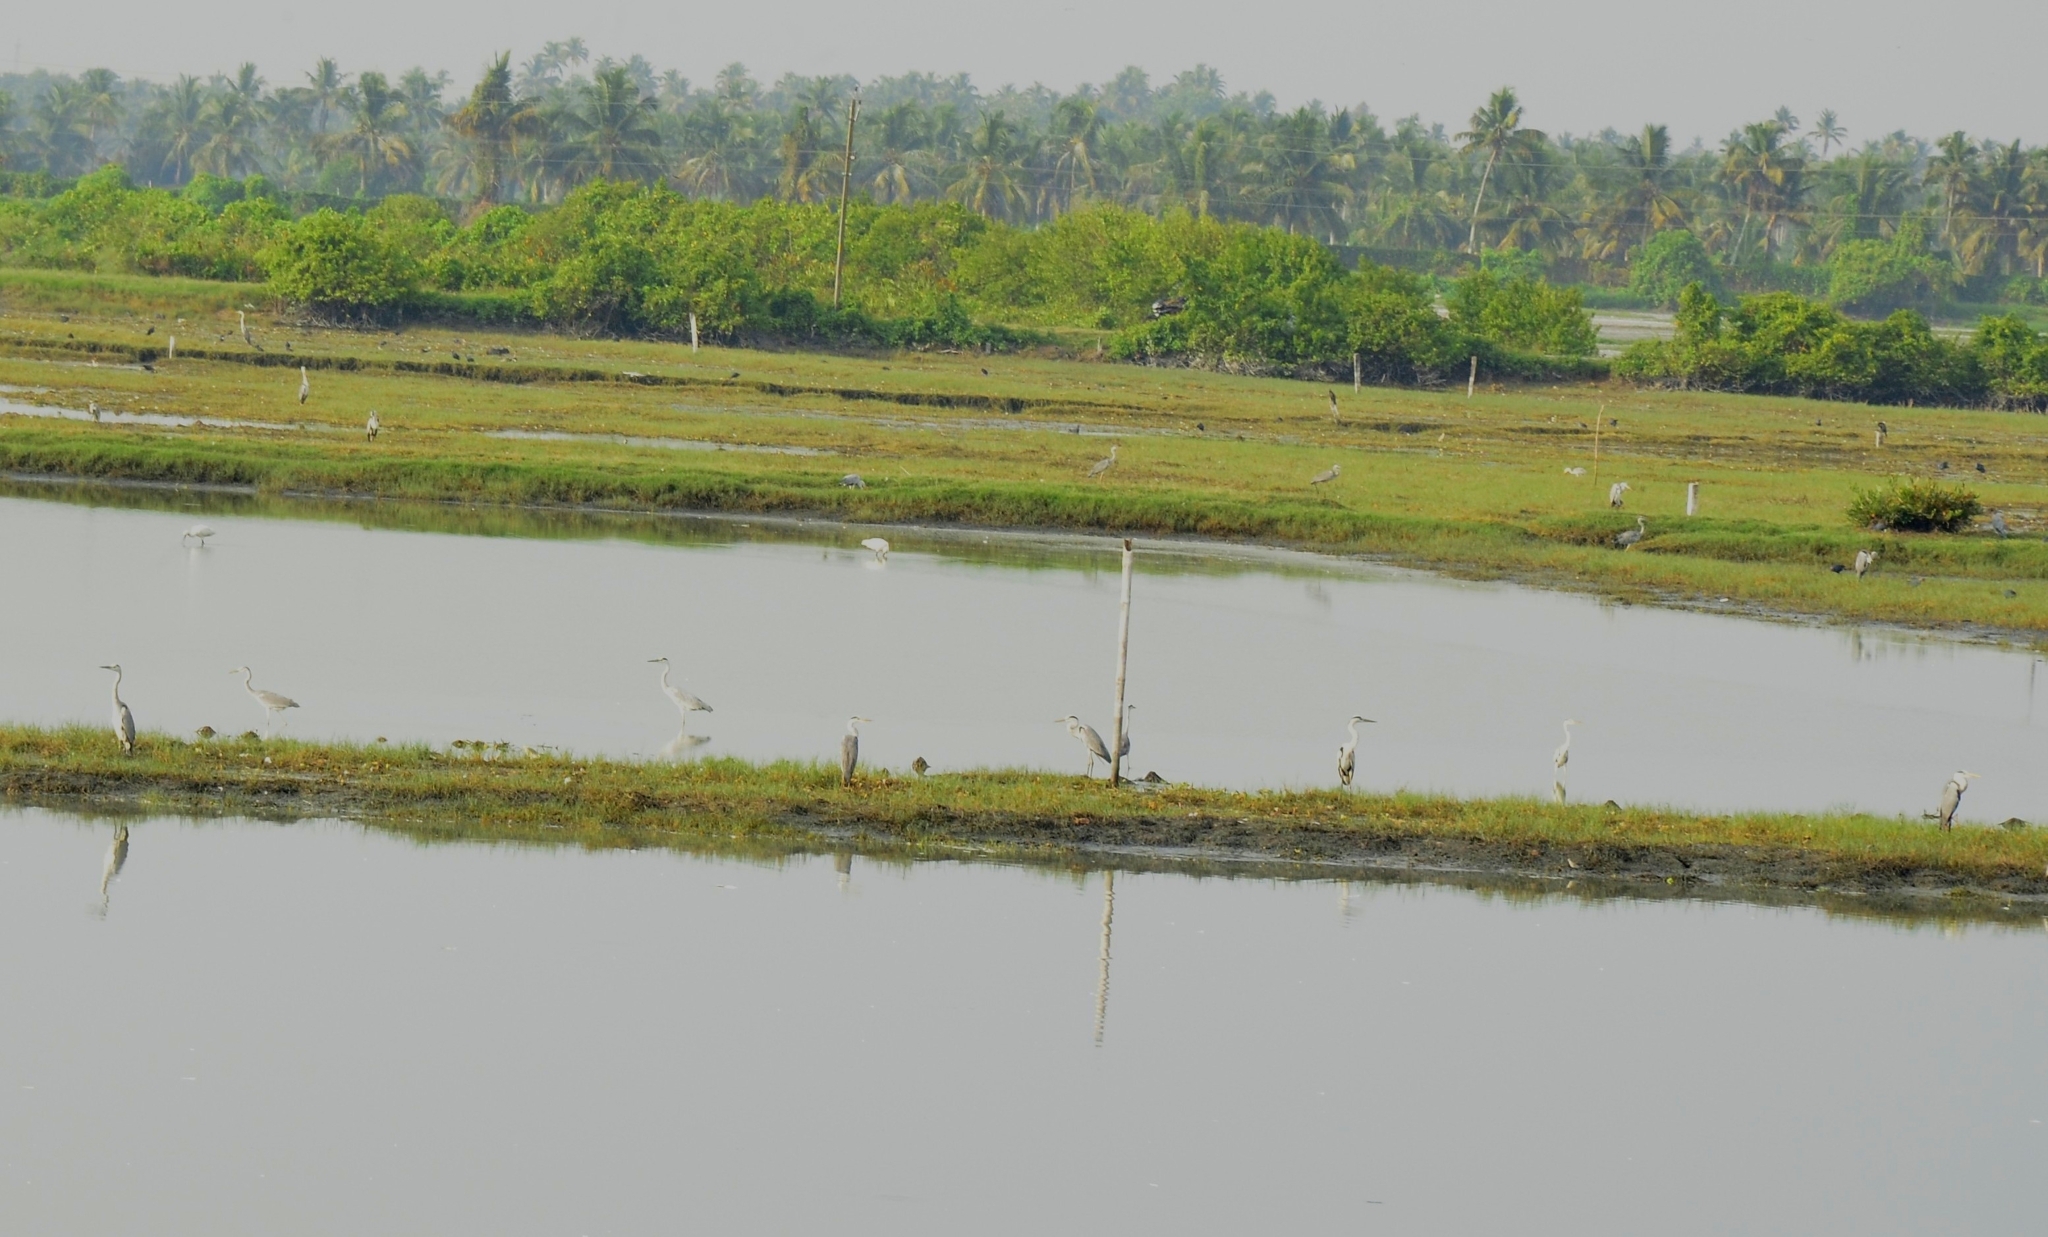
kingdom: Animalia
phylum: Chordata
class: Aves
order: Pelecaniformes
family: Ardeidae
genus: Ardea
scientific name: Ardea cinerea
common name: Grey heron
